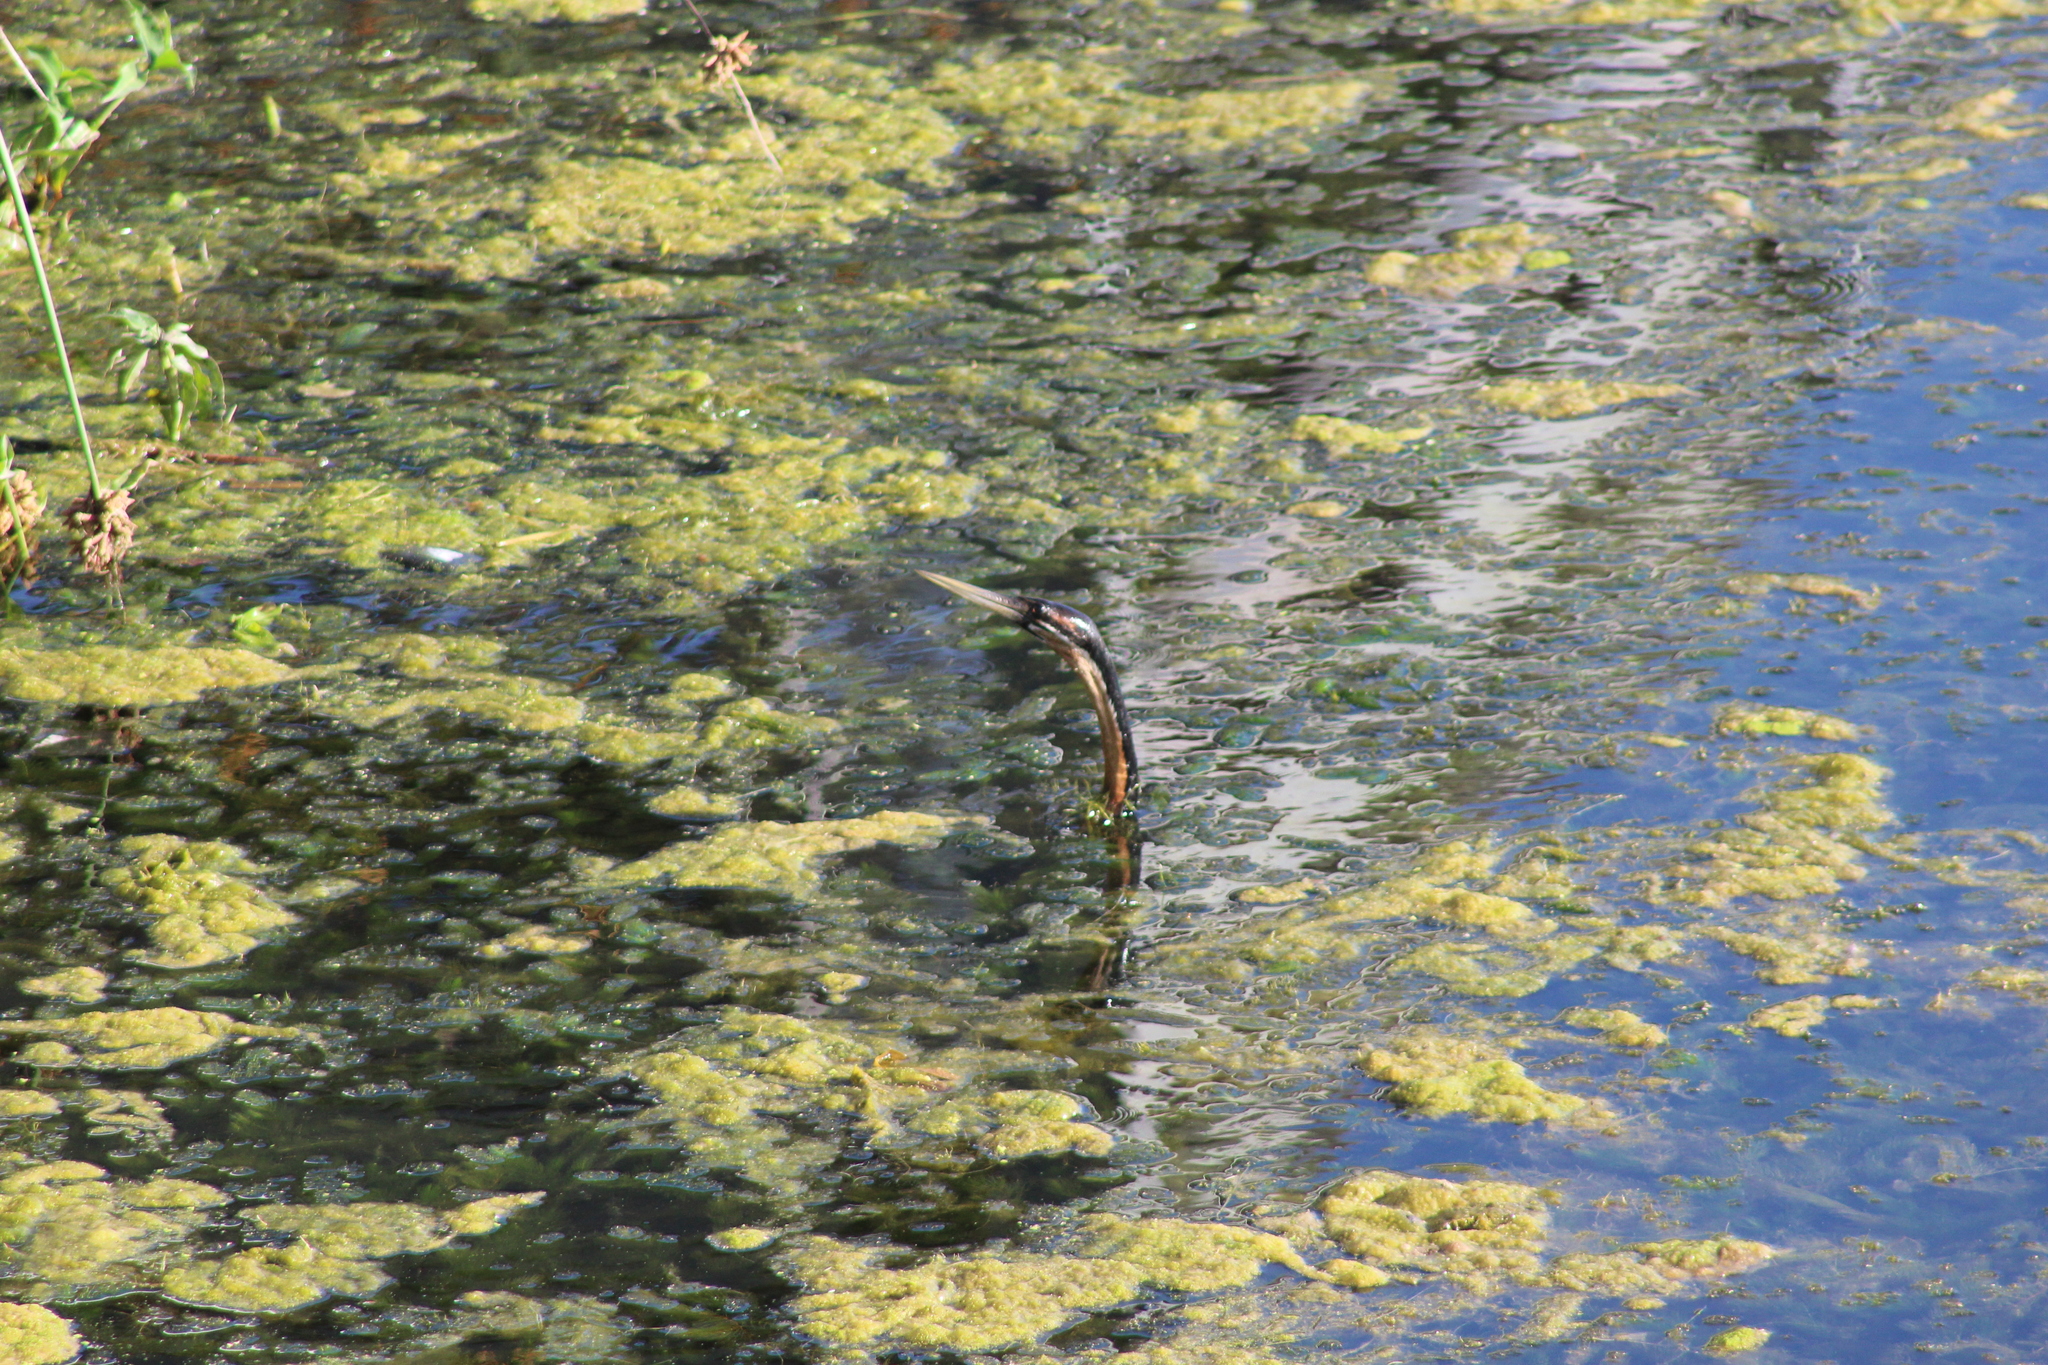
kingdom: Animalia
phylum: Chordata
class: Aves
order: Suliformes
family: Anhingidae
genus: Anhinga
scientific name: Anhinga rufa
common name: African darter
